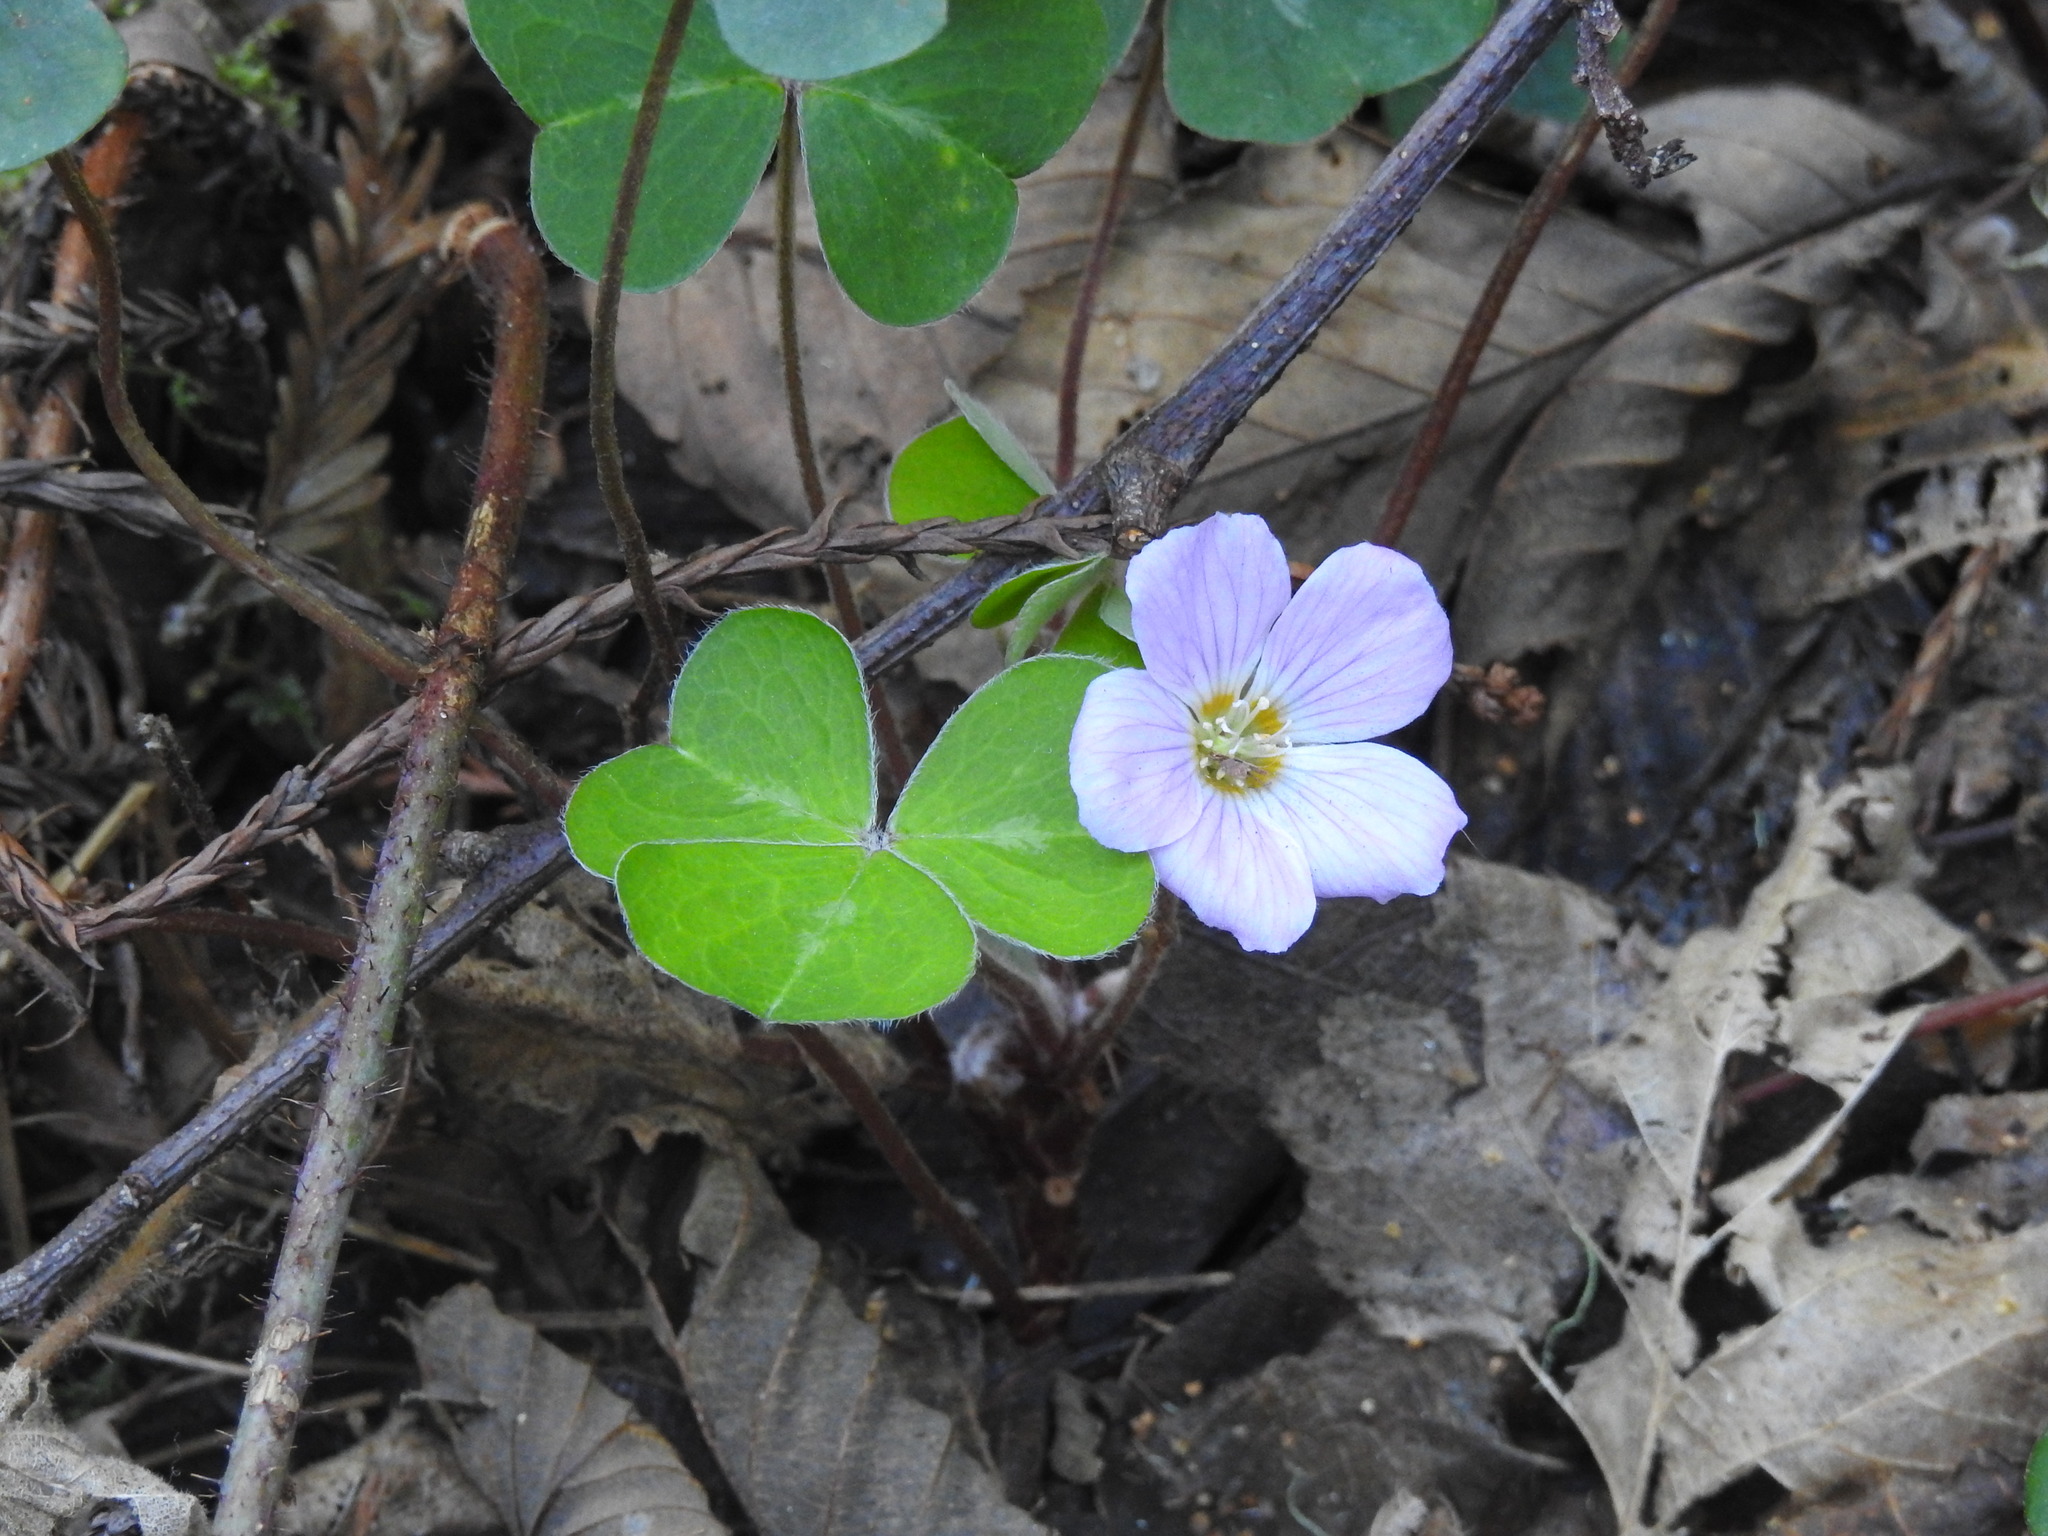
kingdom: Plantae
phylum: Tracheophyta
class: Magnoliopsida
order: Oxalidales
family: Oxalidaceae
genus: Oxalis
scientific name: Oxalis oregana
